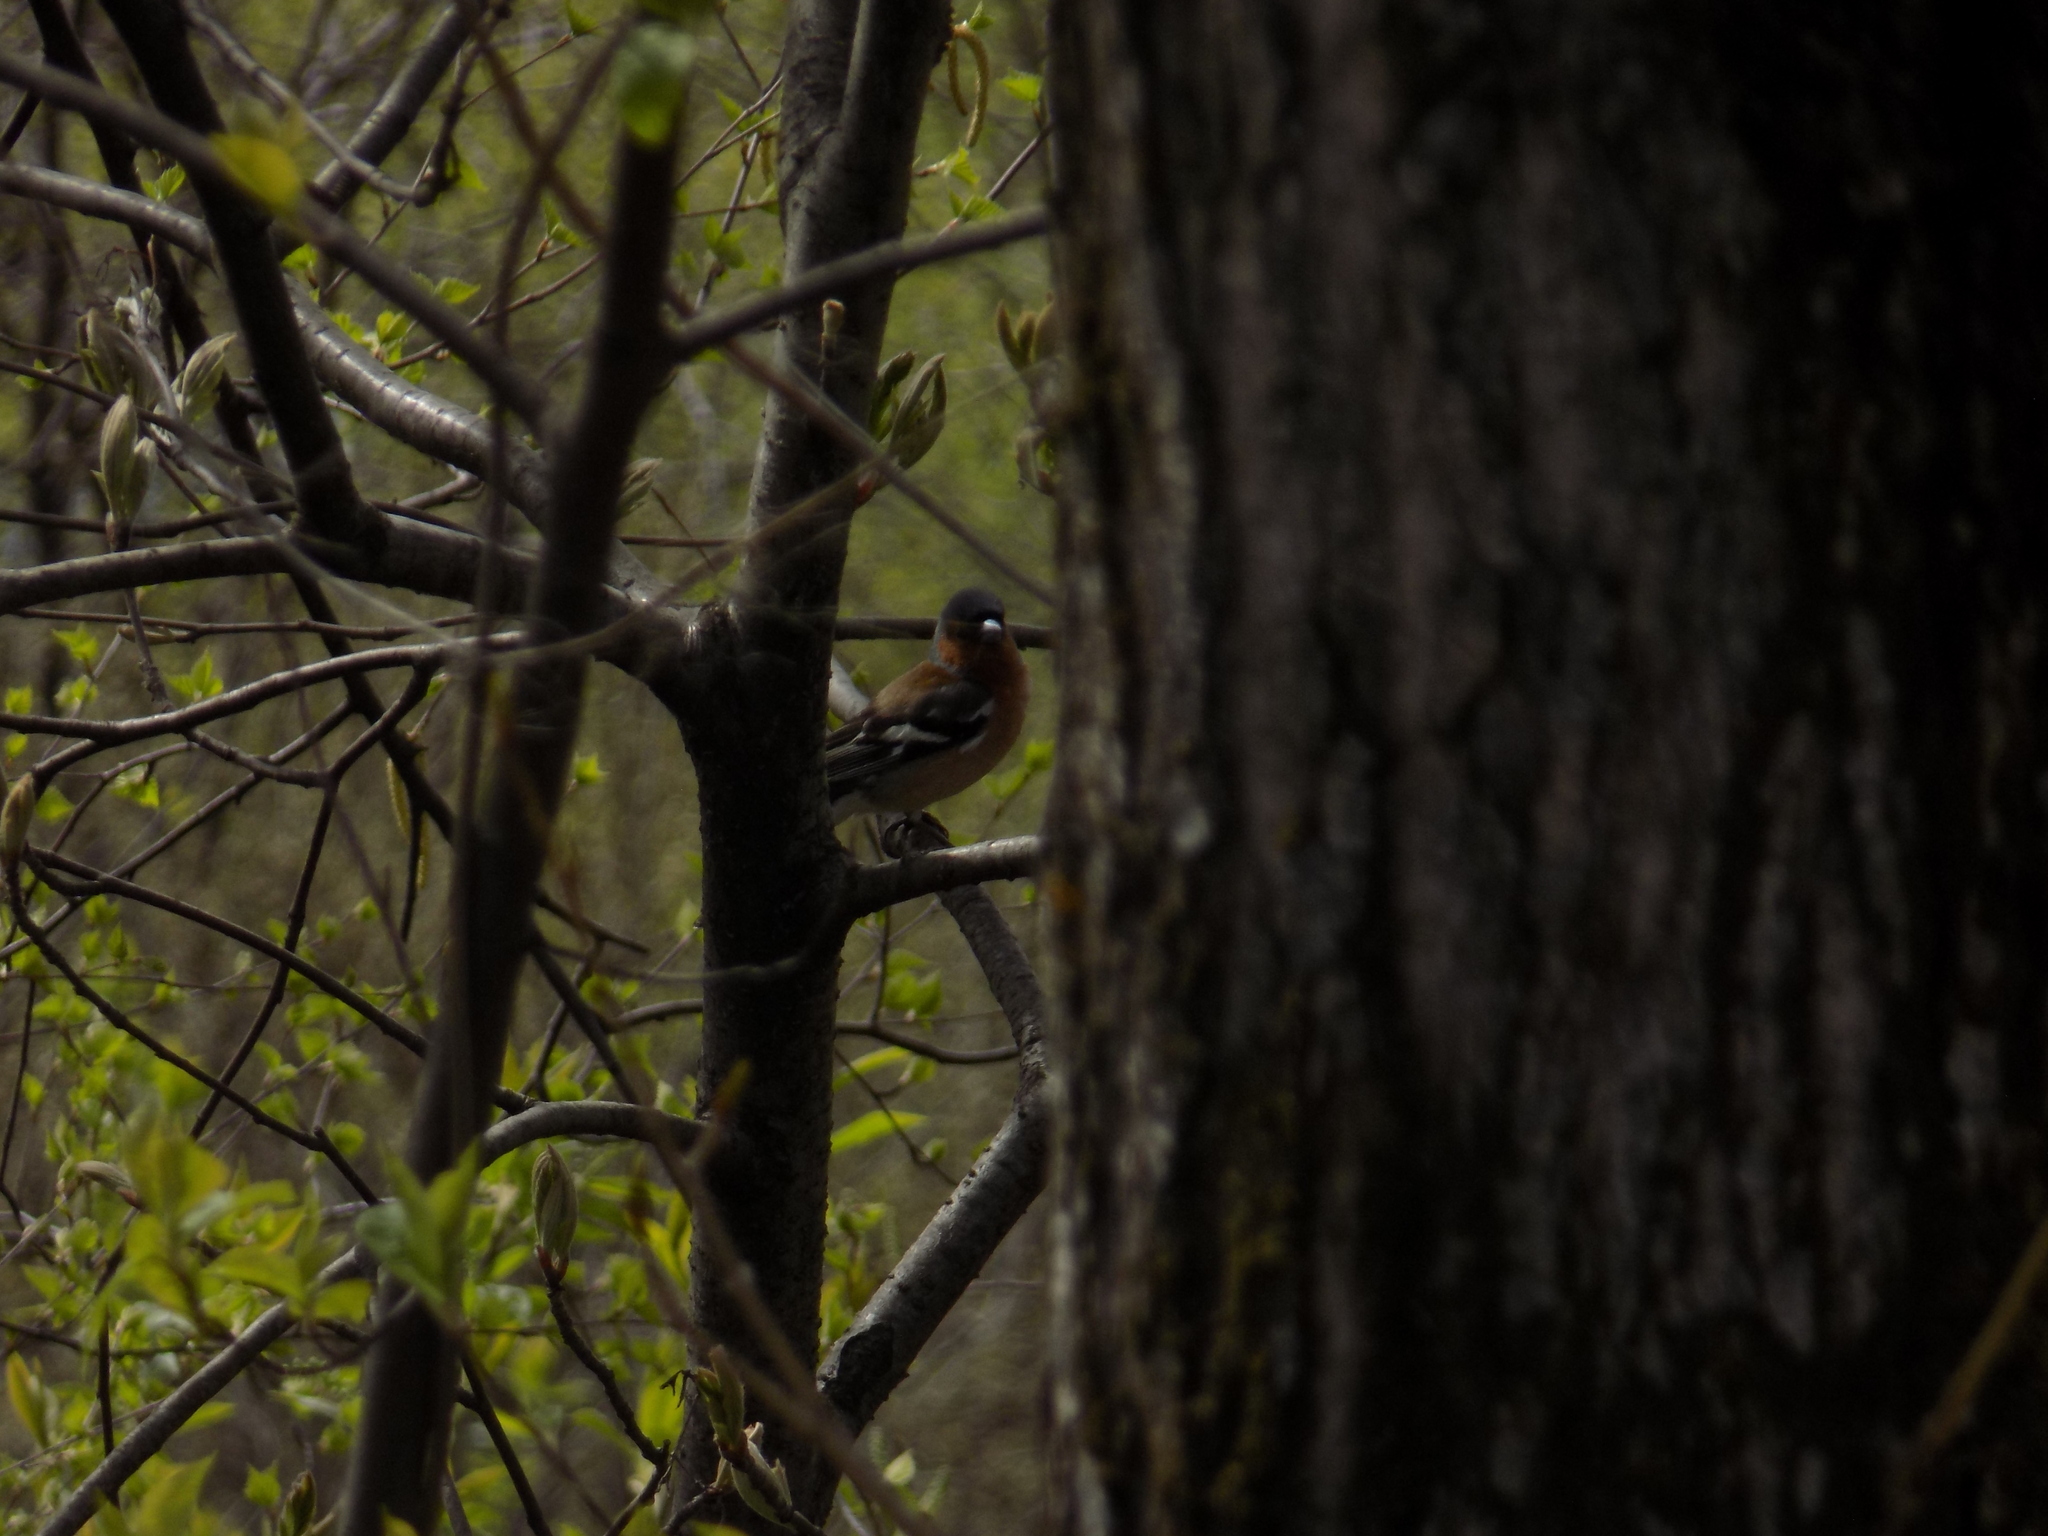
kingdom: Animalia
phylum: Chordata
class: Aves
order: Passeriformes
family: Fringillidae
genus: Fringilla
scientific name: Fringilla coelebs
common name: Common chaffinch
